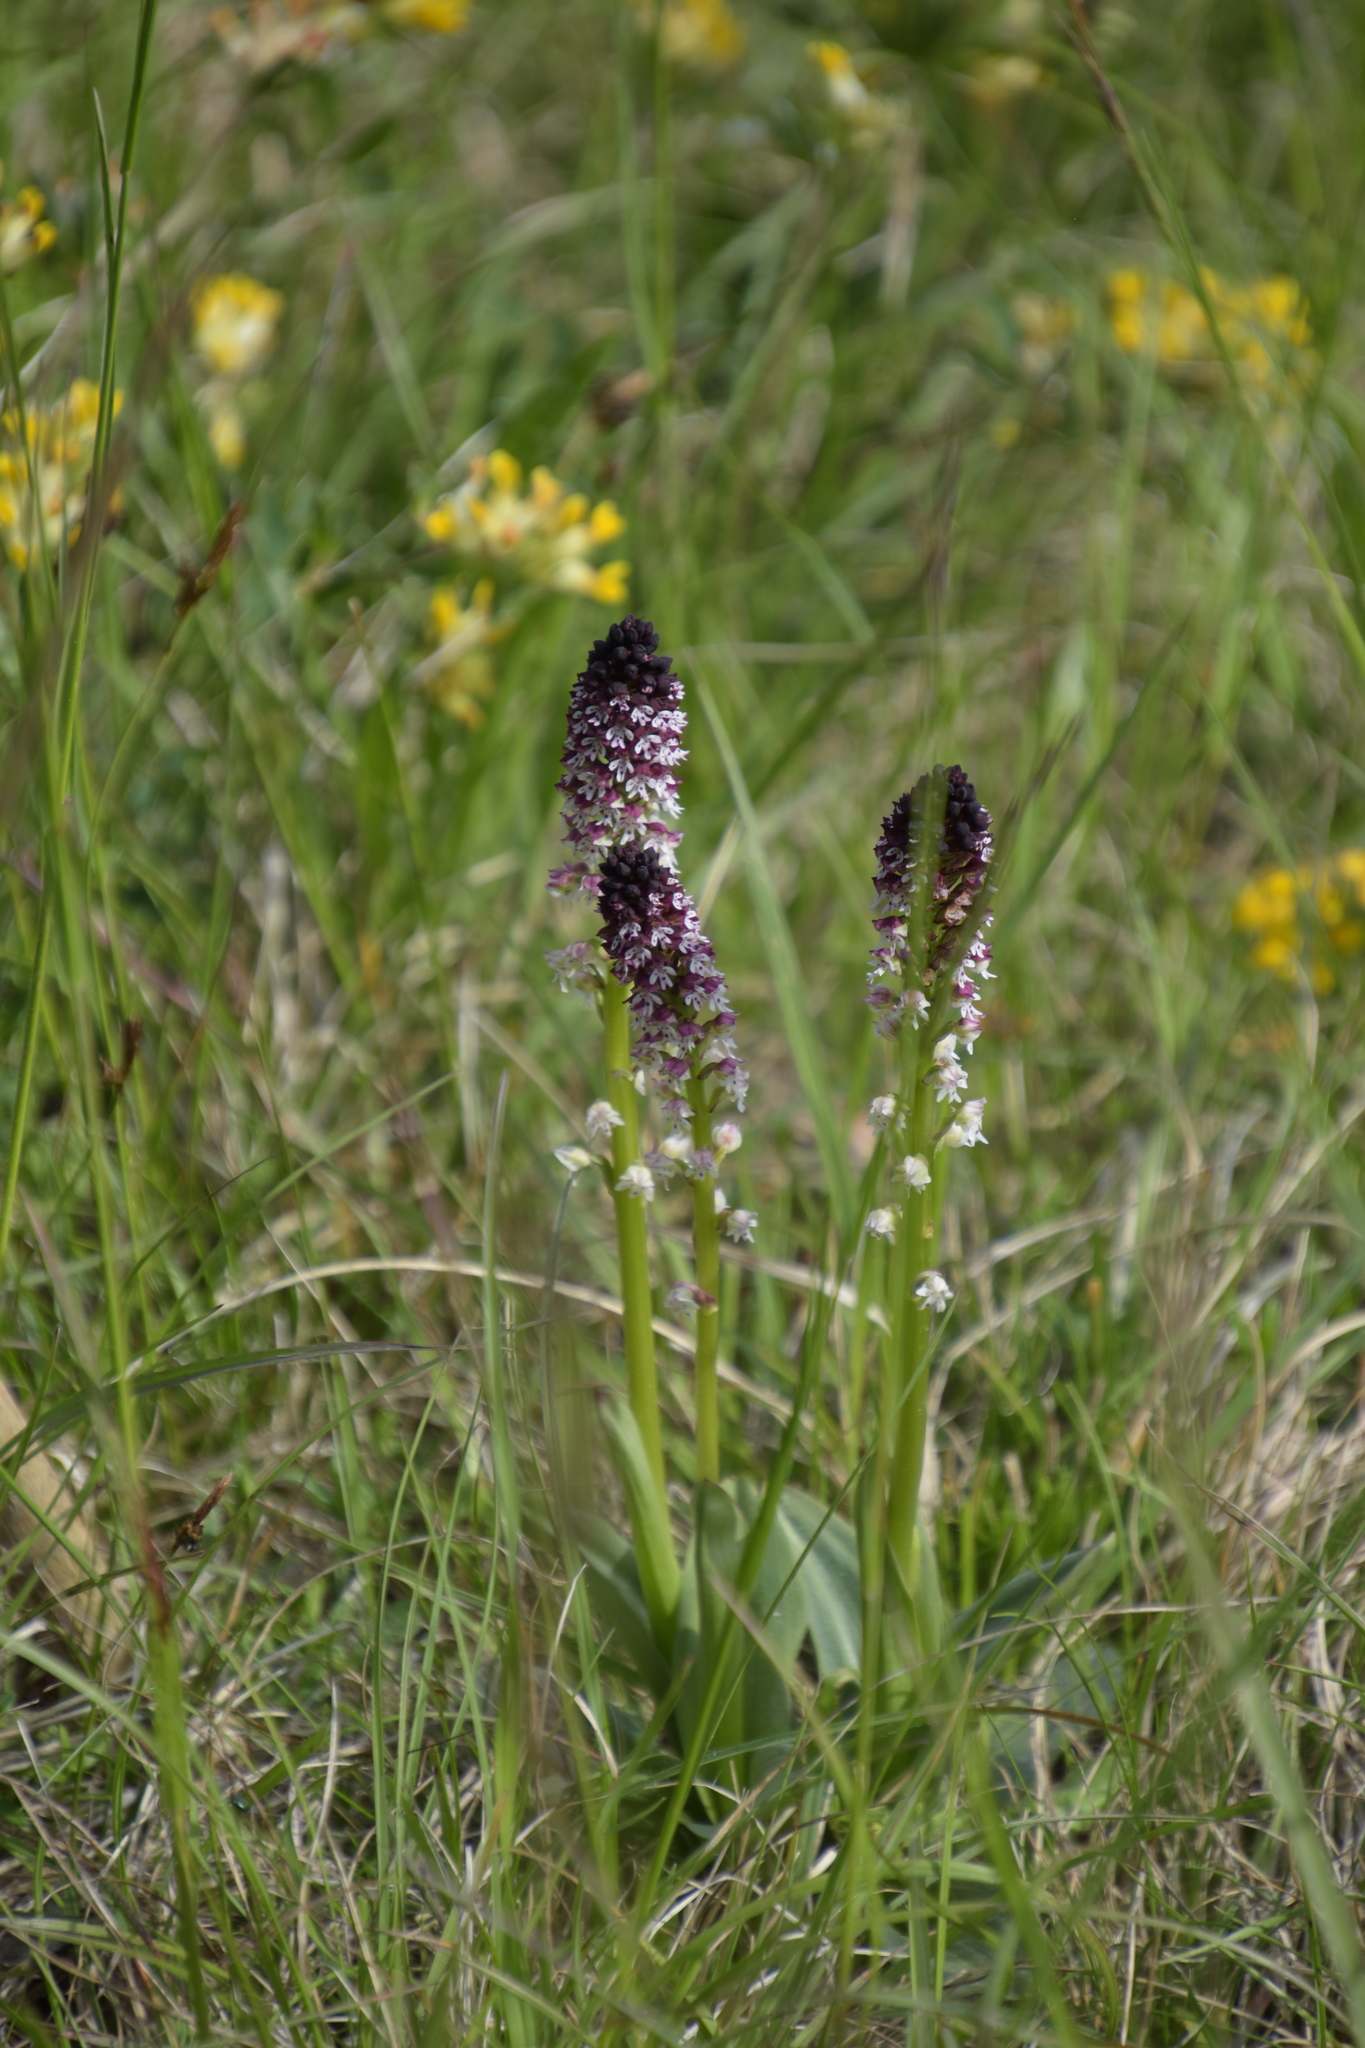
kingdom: Plantae
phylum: Tracheophyta
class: Liliopsida
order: Asparagales
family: Orchidaceae
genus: Neotinea
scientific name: Neotinea ustulata
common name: Burnt orchid
